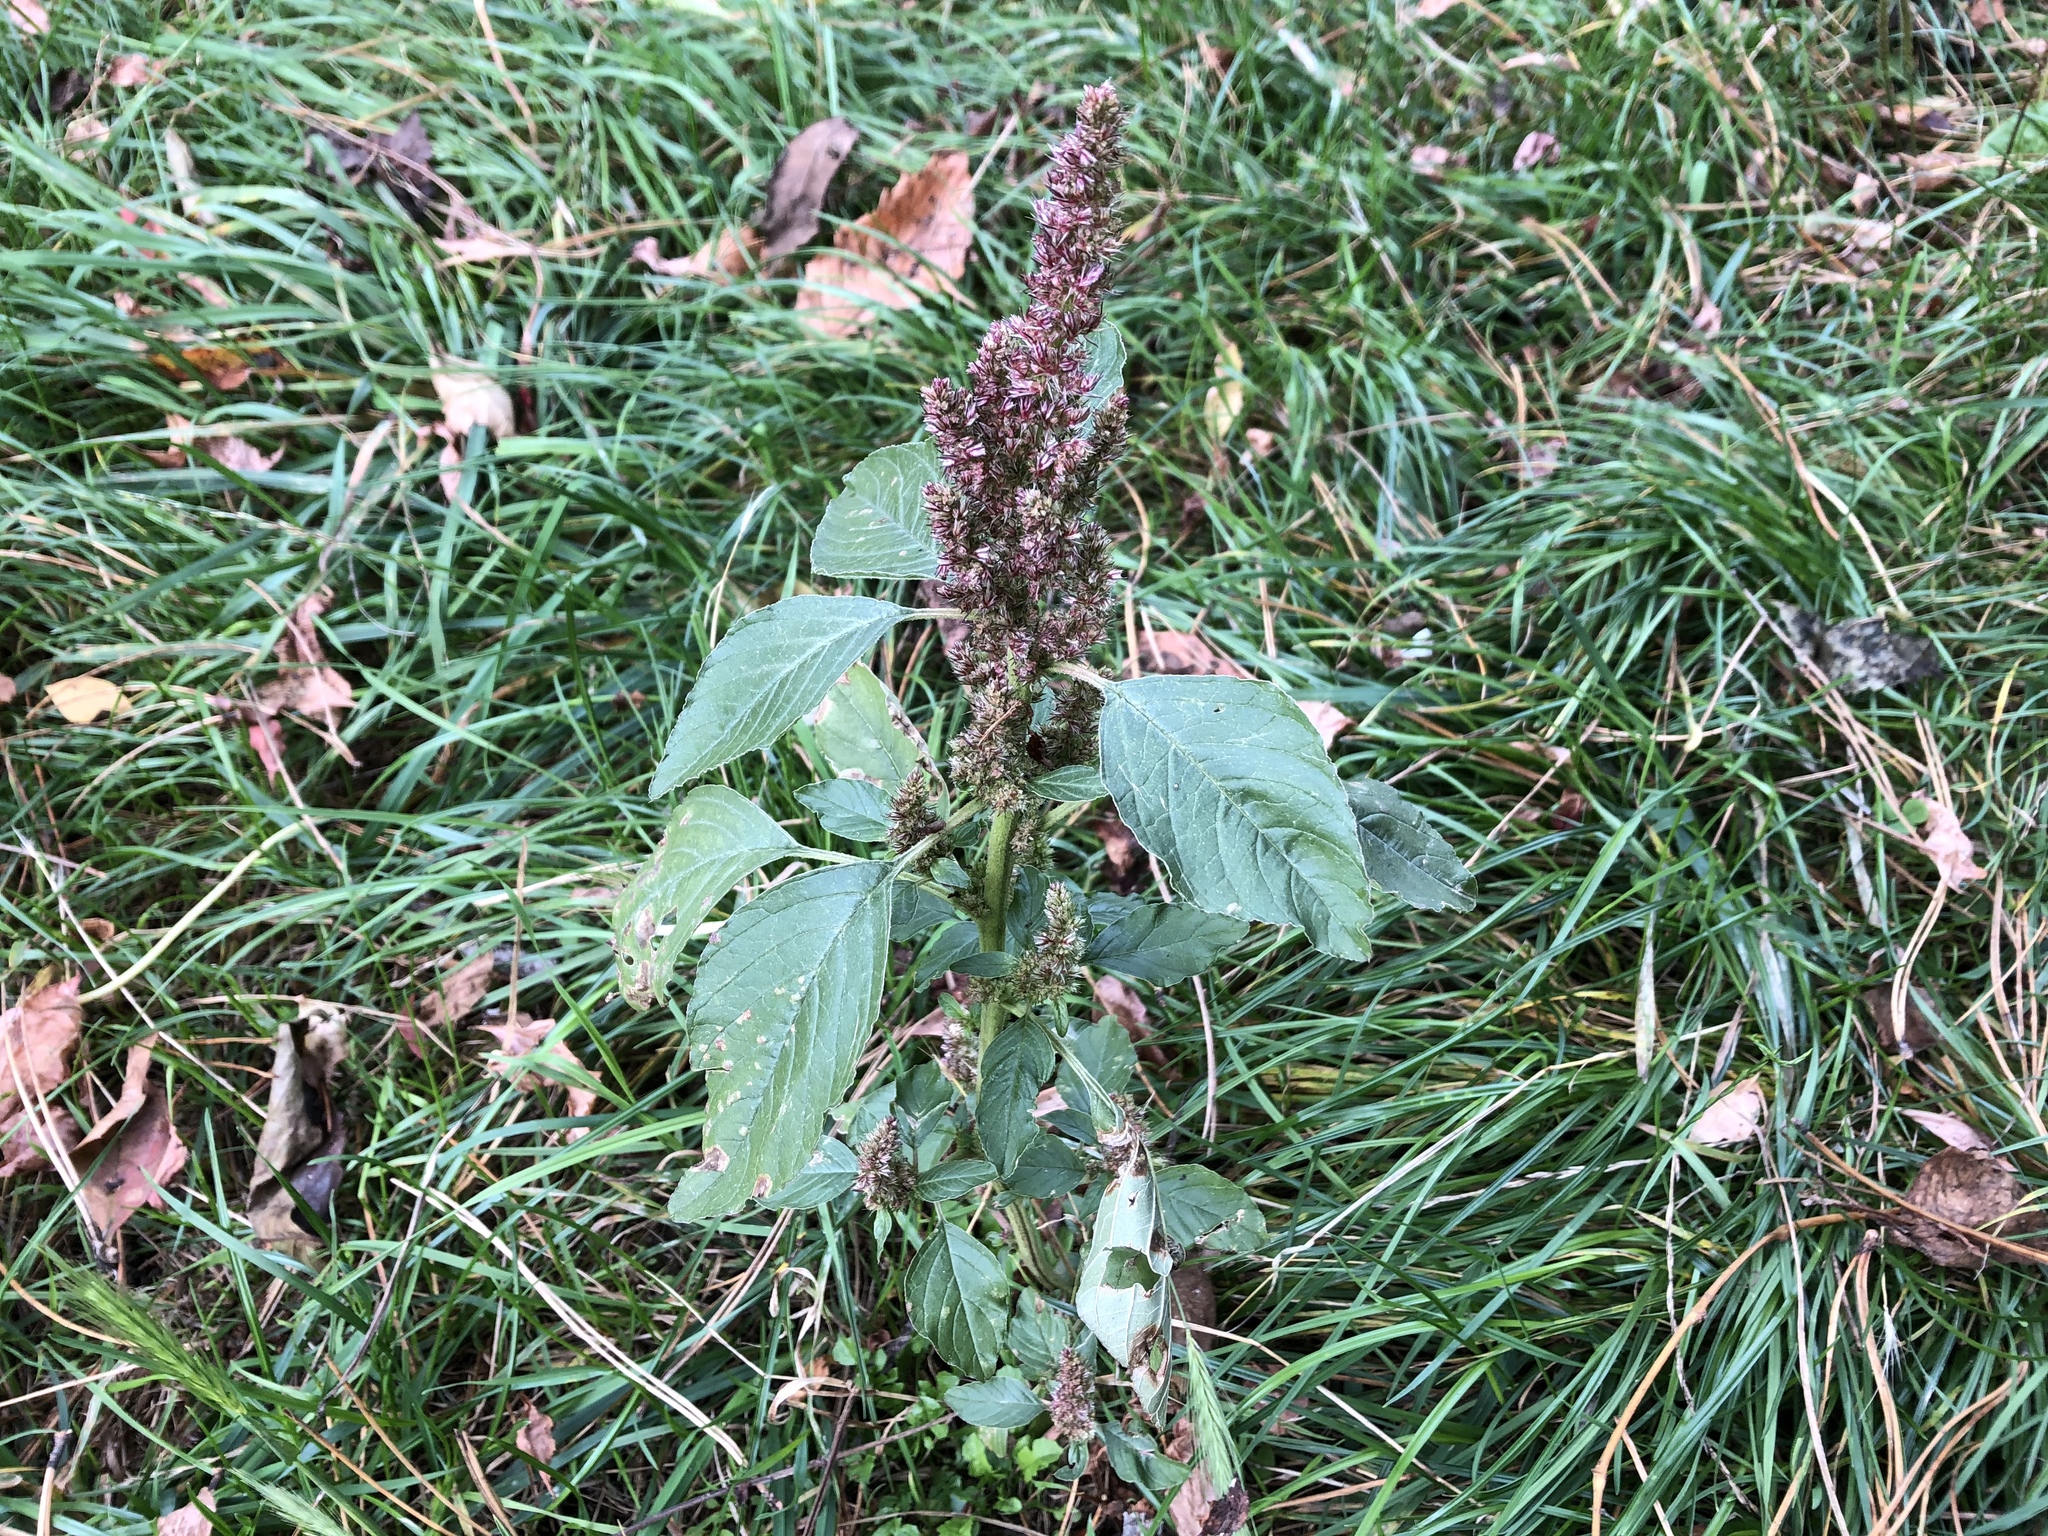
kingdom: Plantae
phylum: Tracheophyta
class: Magnoliopsida
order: Caryophyllales
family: Amaranthaceae
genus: Amaranthus
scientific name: Amaranthus retroflexus
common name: Redroot amaranth
